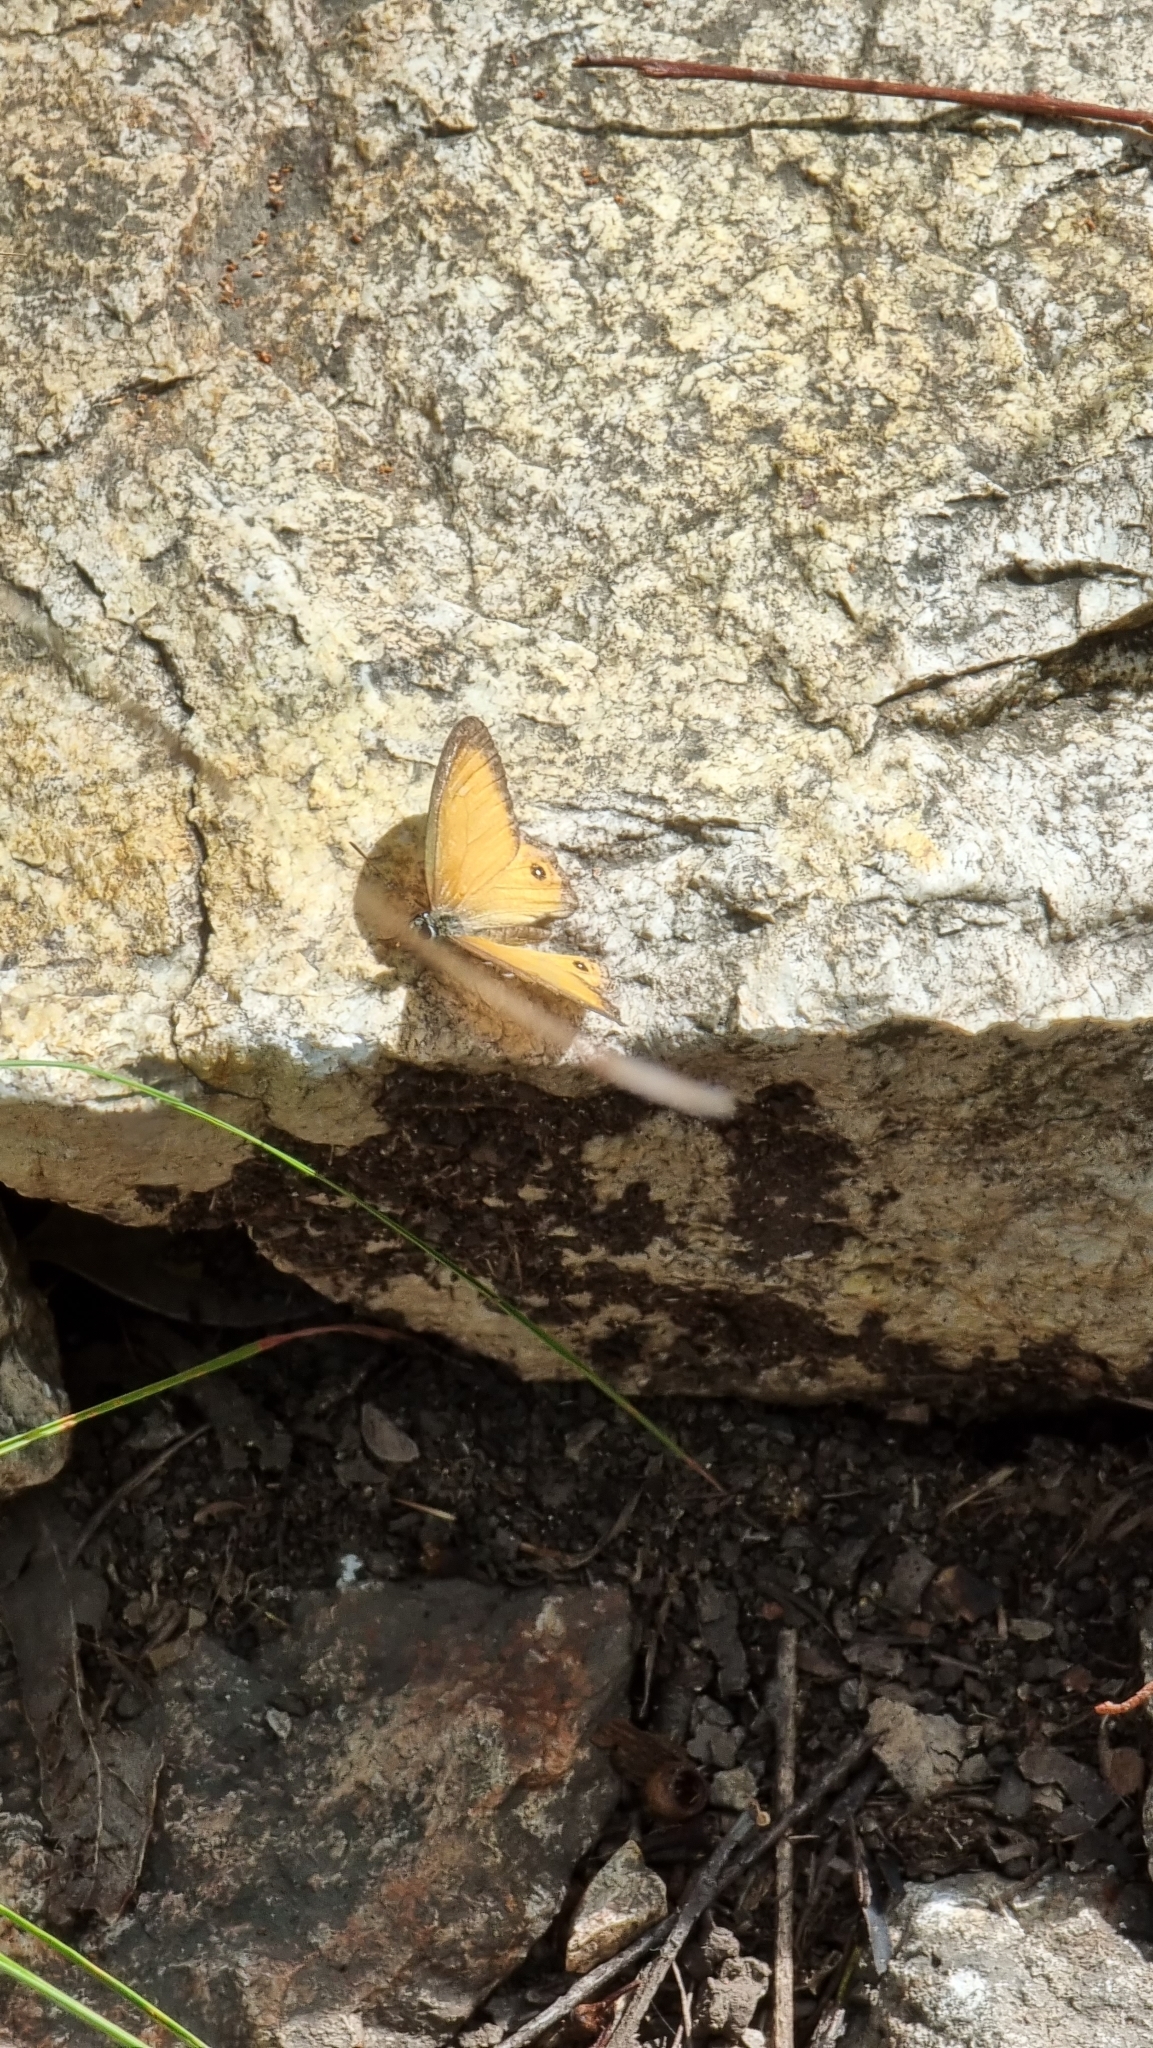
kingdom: Animalia
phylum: Arthropoda
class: Insecta
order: Lepidoptera
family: Nymphalidae
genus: Hypocysta
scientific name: Hypocysta adiante
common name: Orange ringlet
